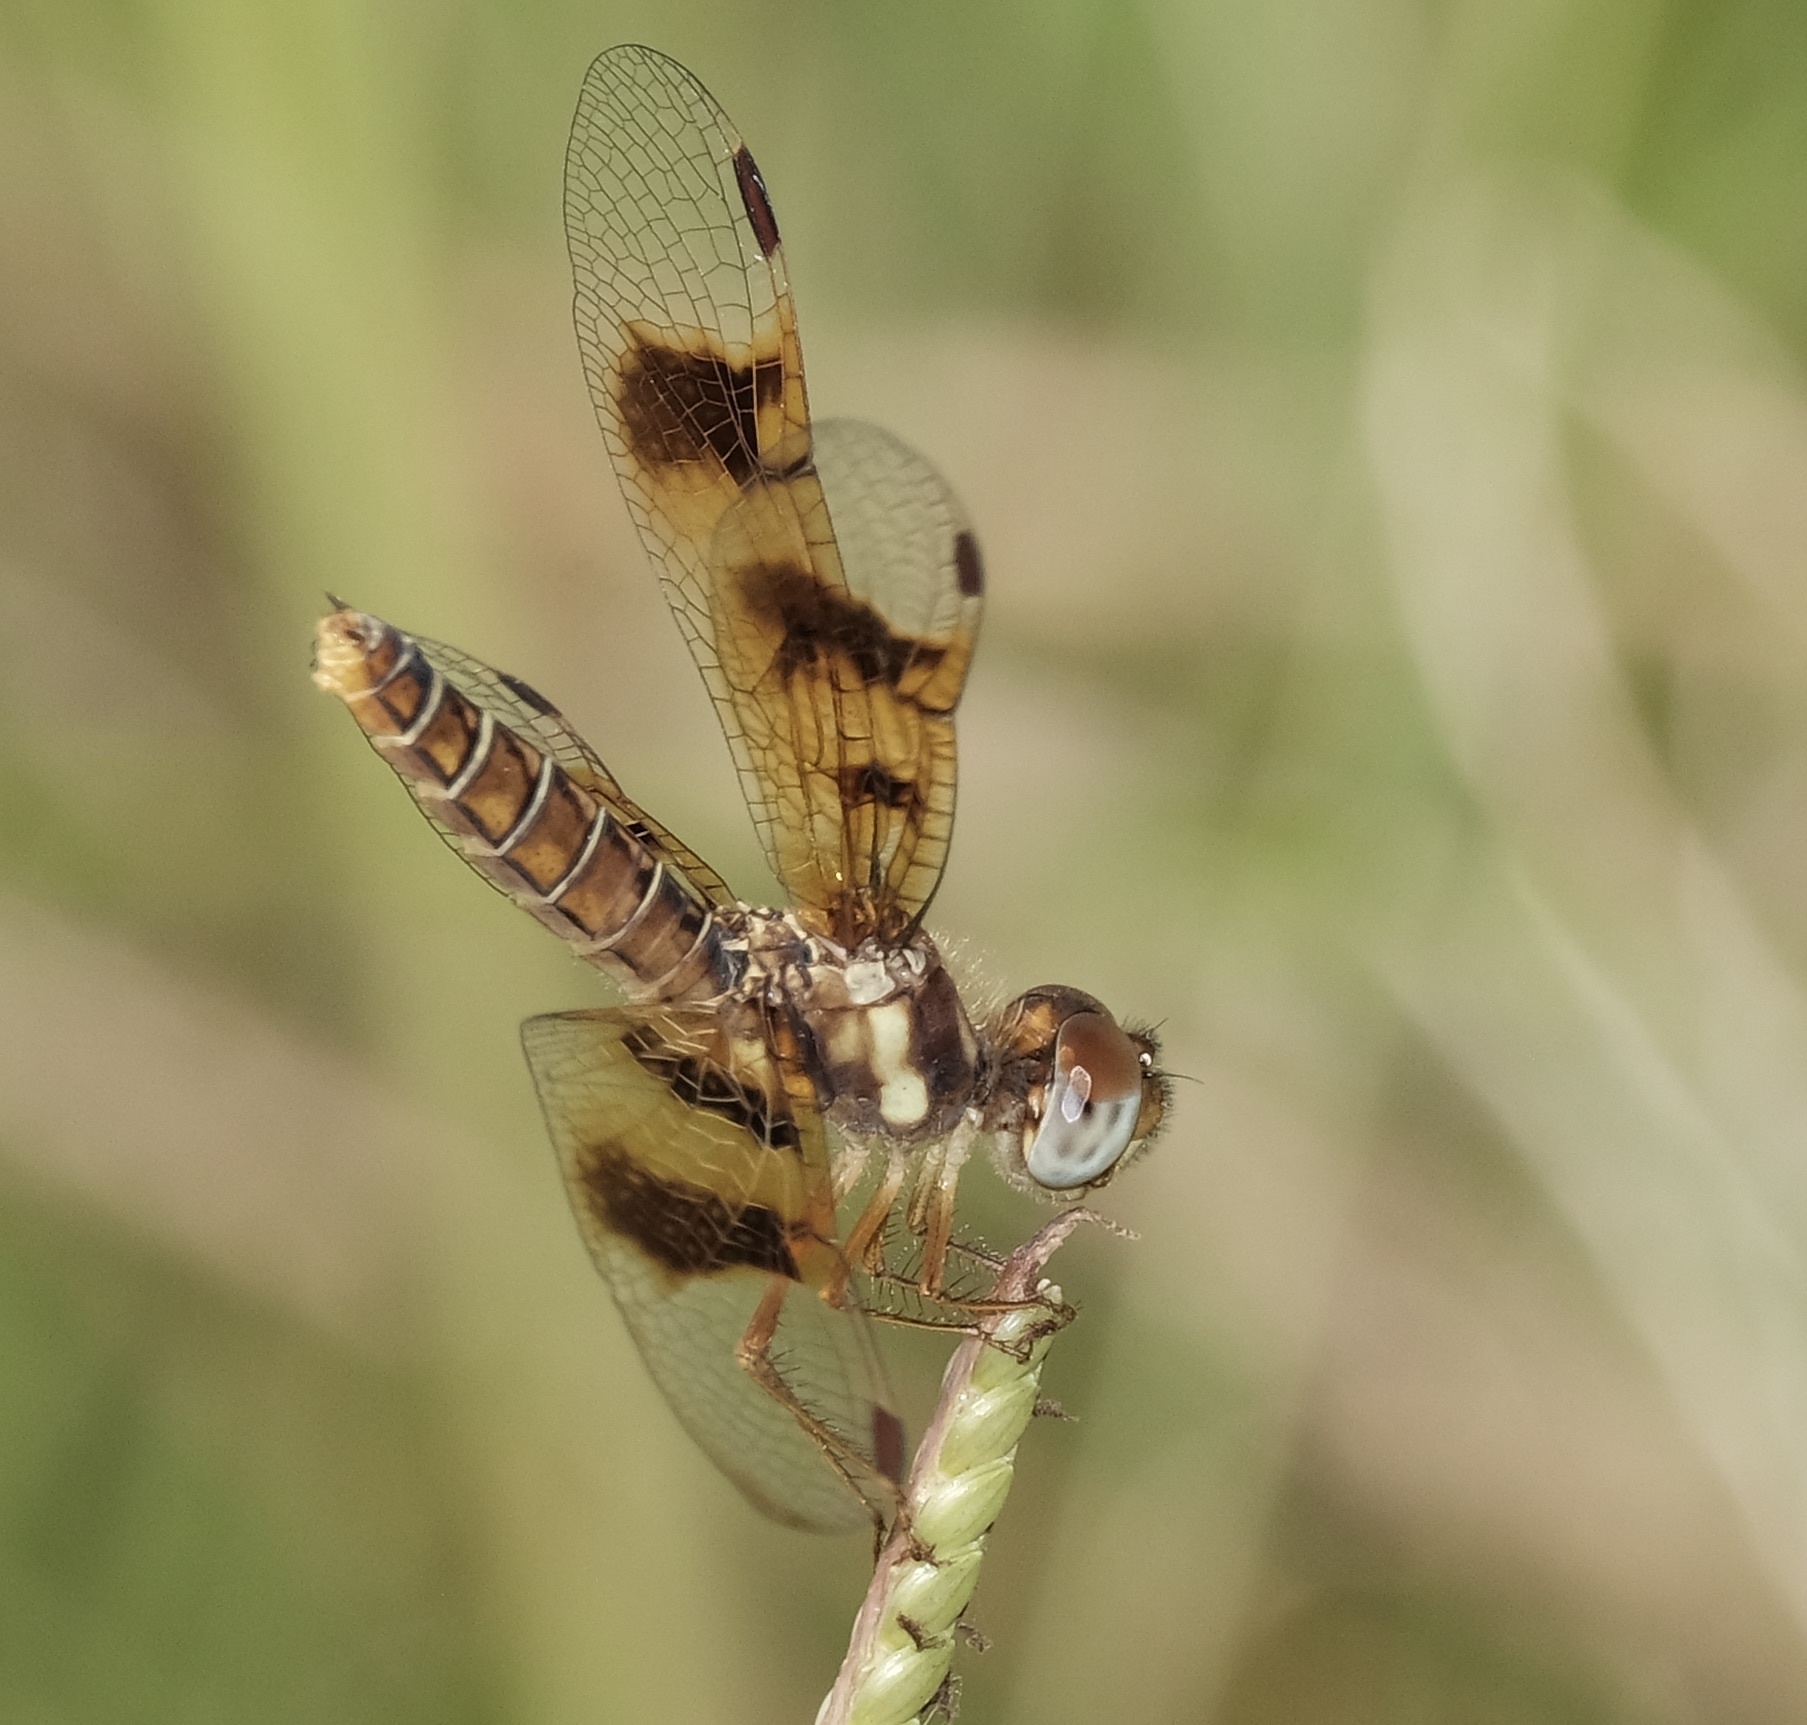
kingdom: Animalia
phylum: Arthropoda
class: Insecta
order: Odonata
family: Libellulidae
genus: Perithemis
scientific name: Perithemis tenera
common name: Eastern amberwing
